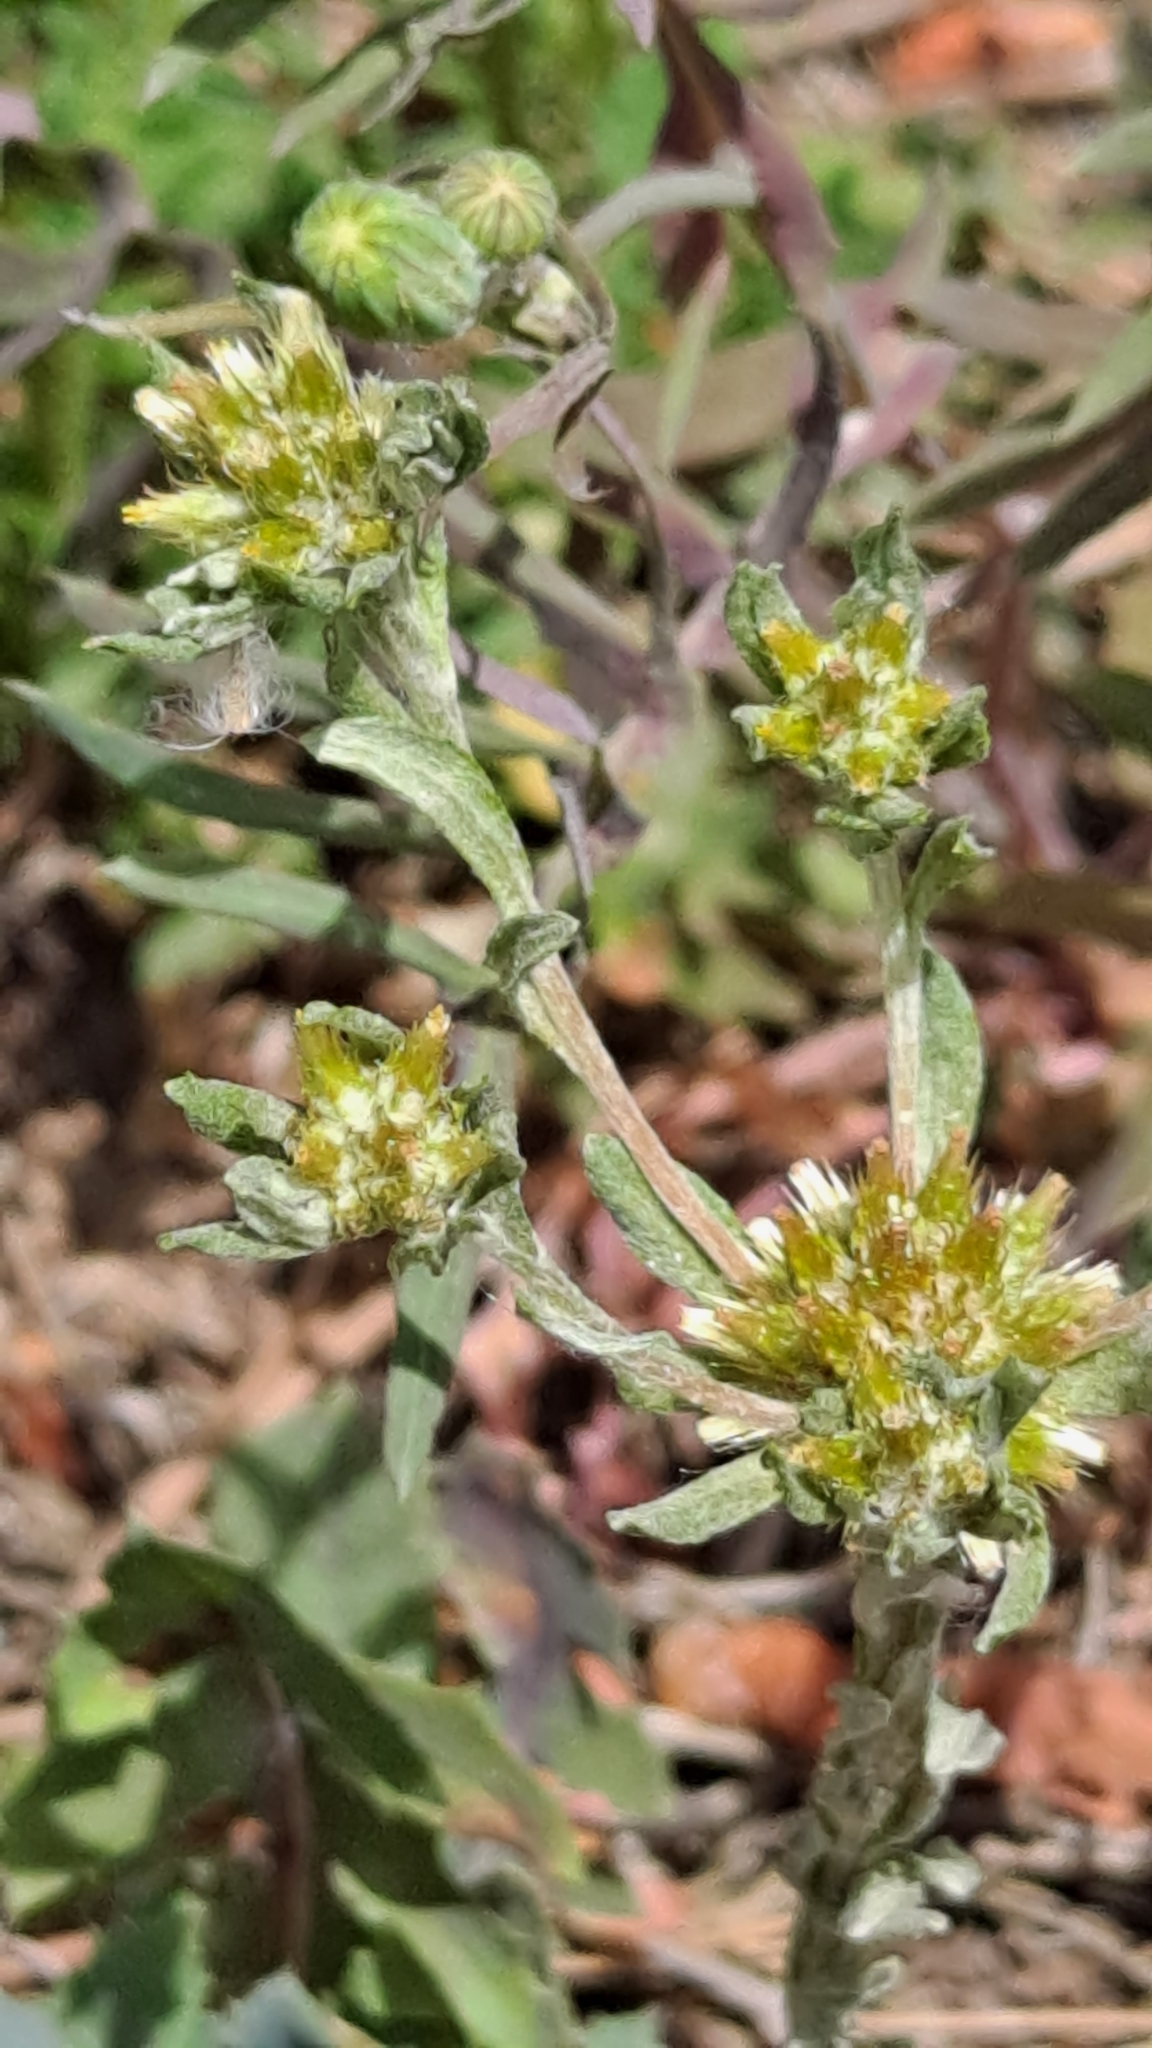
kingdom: Plantae
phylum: Tracheophyta
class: Magnoliopsida
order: Asterales
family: Asteraceae
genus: Filago
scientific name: Filago pyramidata
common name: Broad-leaved cudweed
